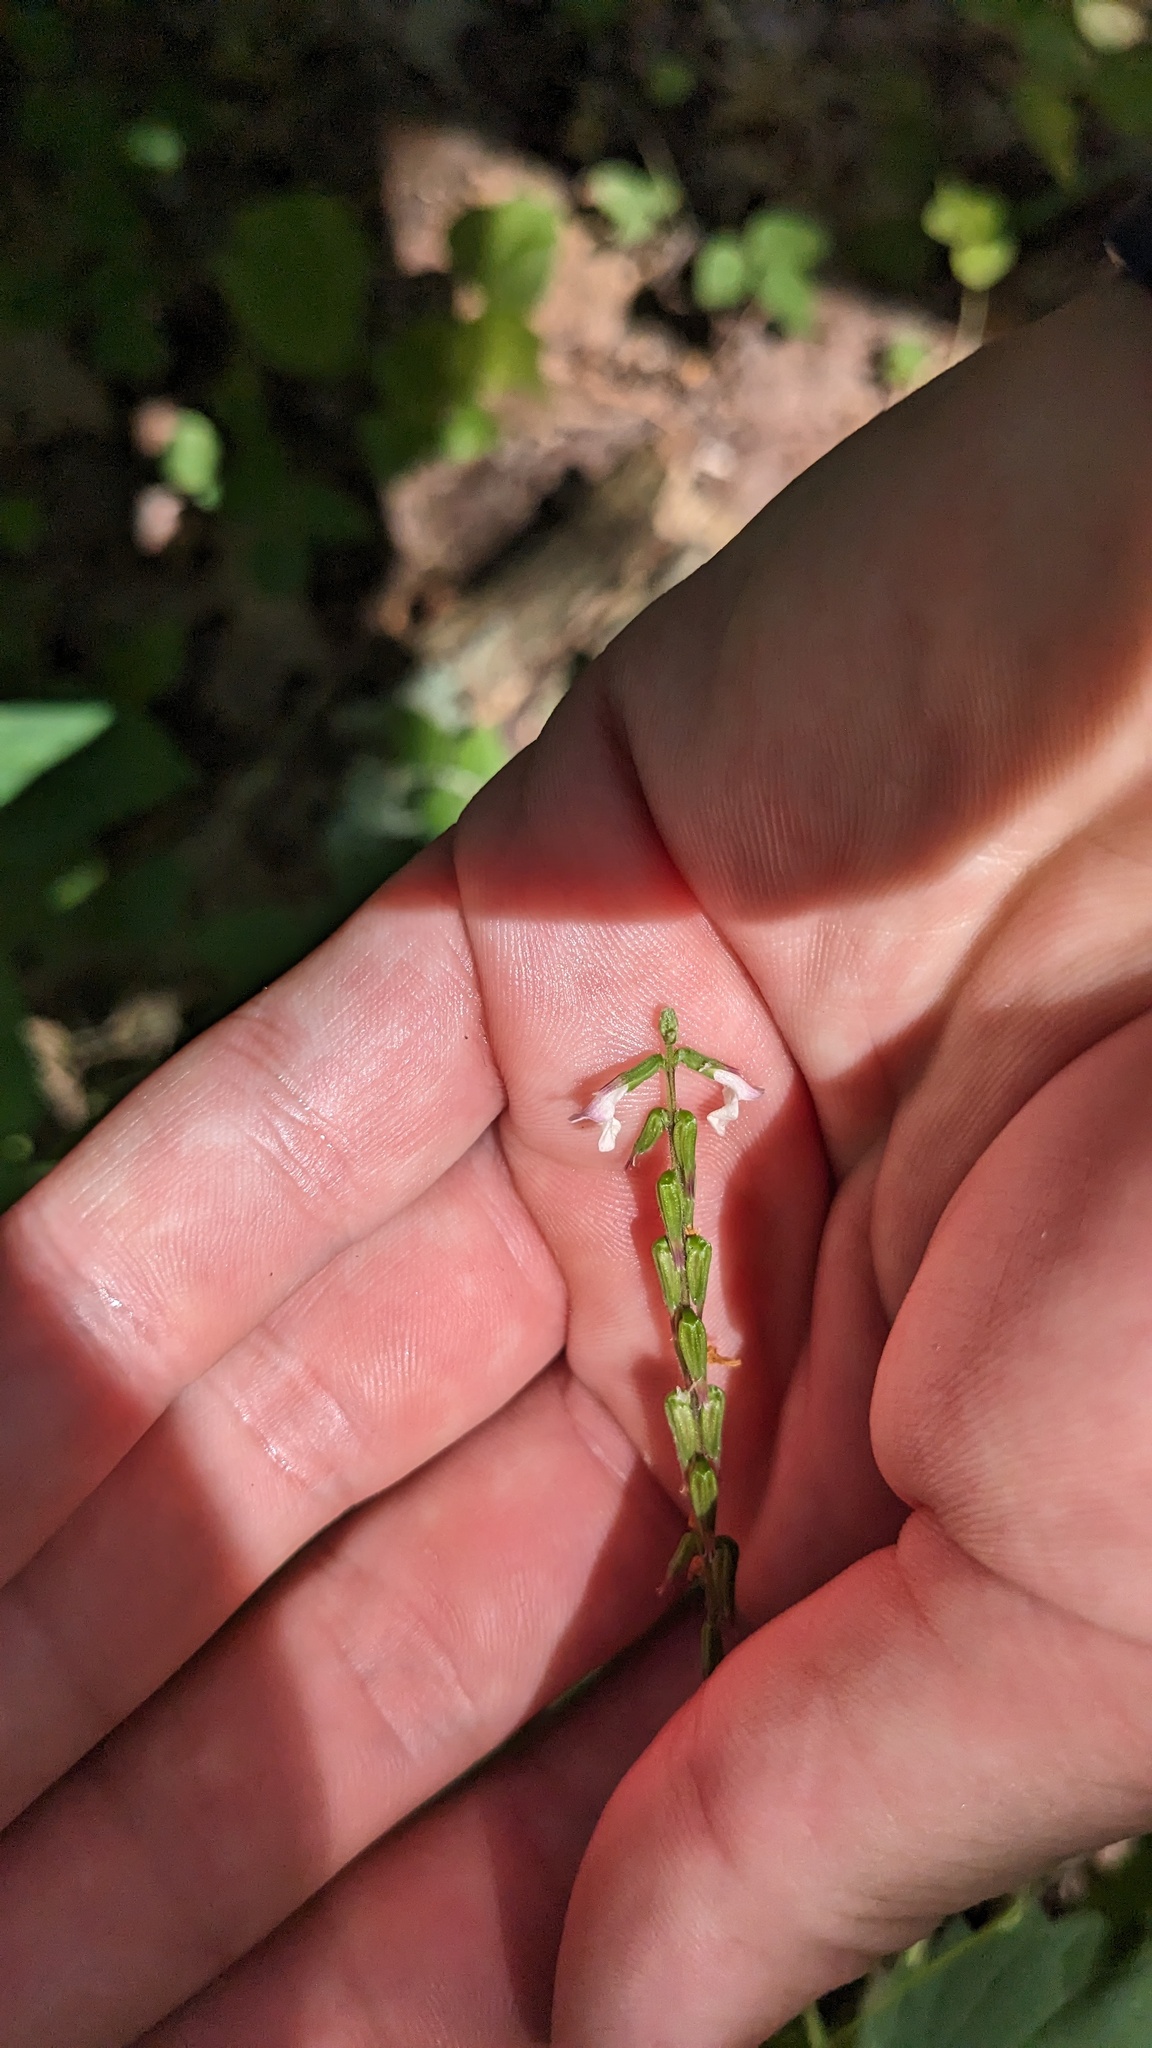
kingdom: Plantae
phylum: Tracheophyta
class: Magnoliopsida
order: Lamiales
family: Phrymaceae
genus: Phryma
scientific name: Phryma leptostachya
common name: American lopseed
